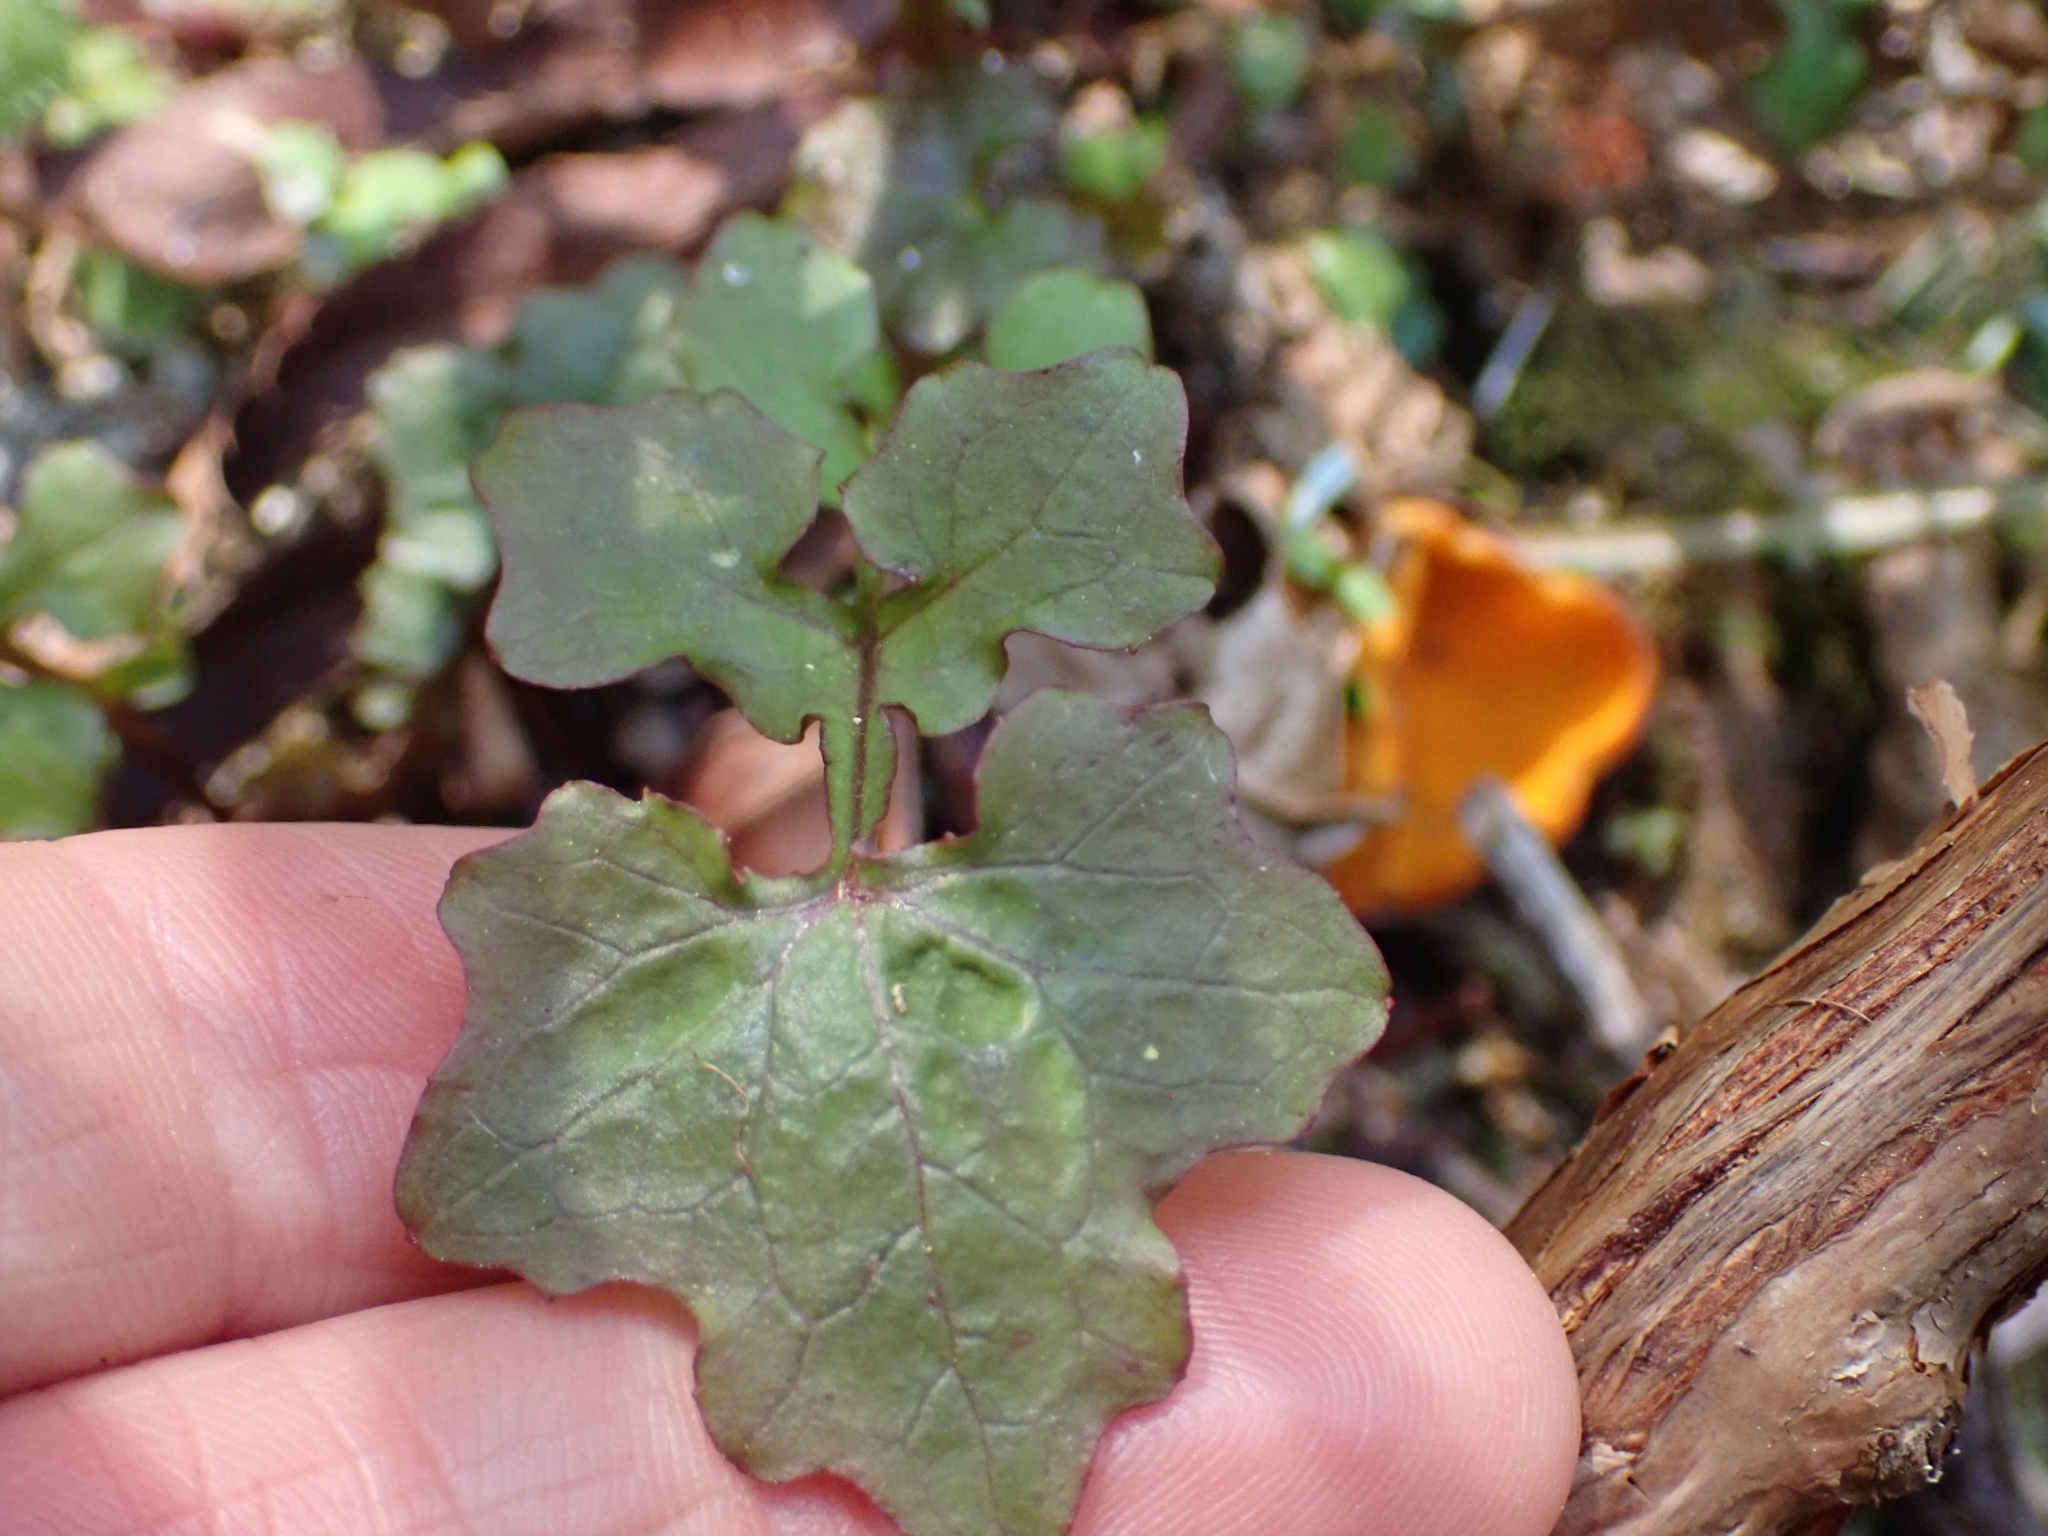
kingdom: Plantae
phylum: Tracheophyta
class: Magnoliopsida
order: Asterales
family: Asteraceae
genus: Mycelis
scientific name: Mycelis muralis
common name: Wall lettuce
